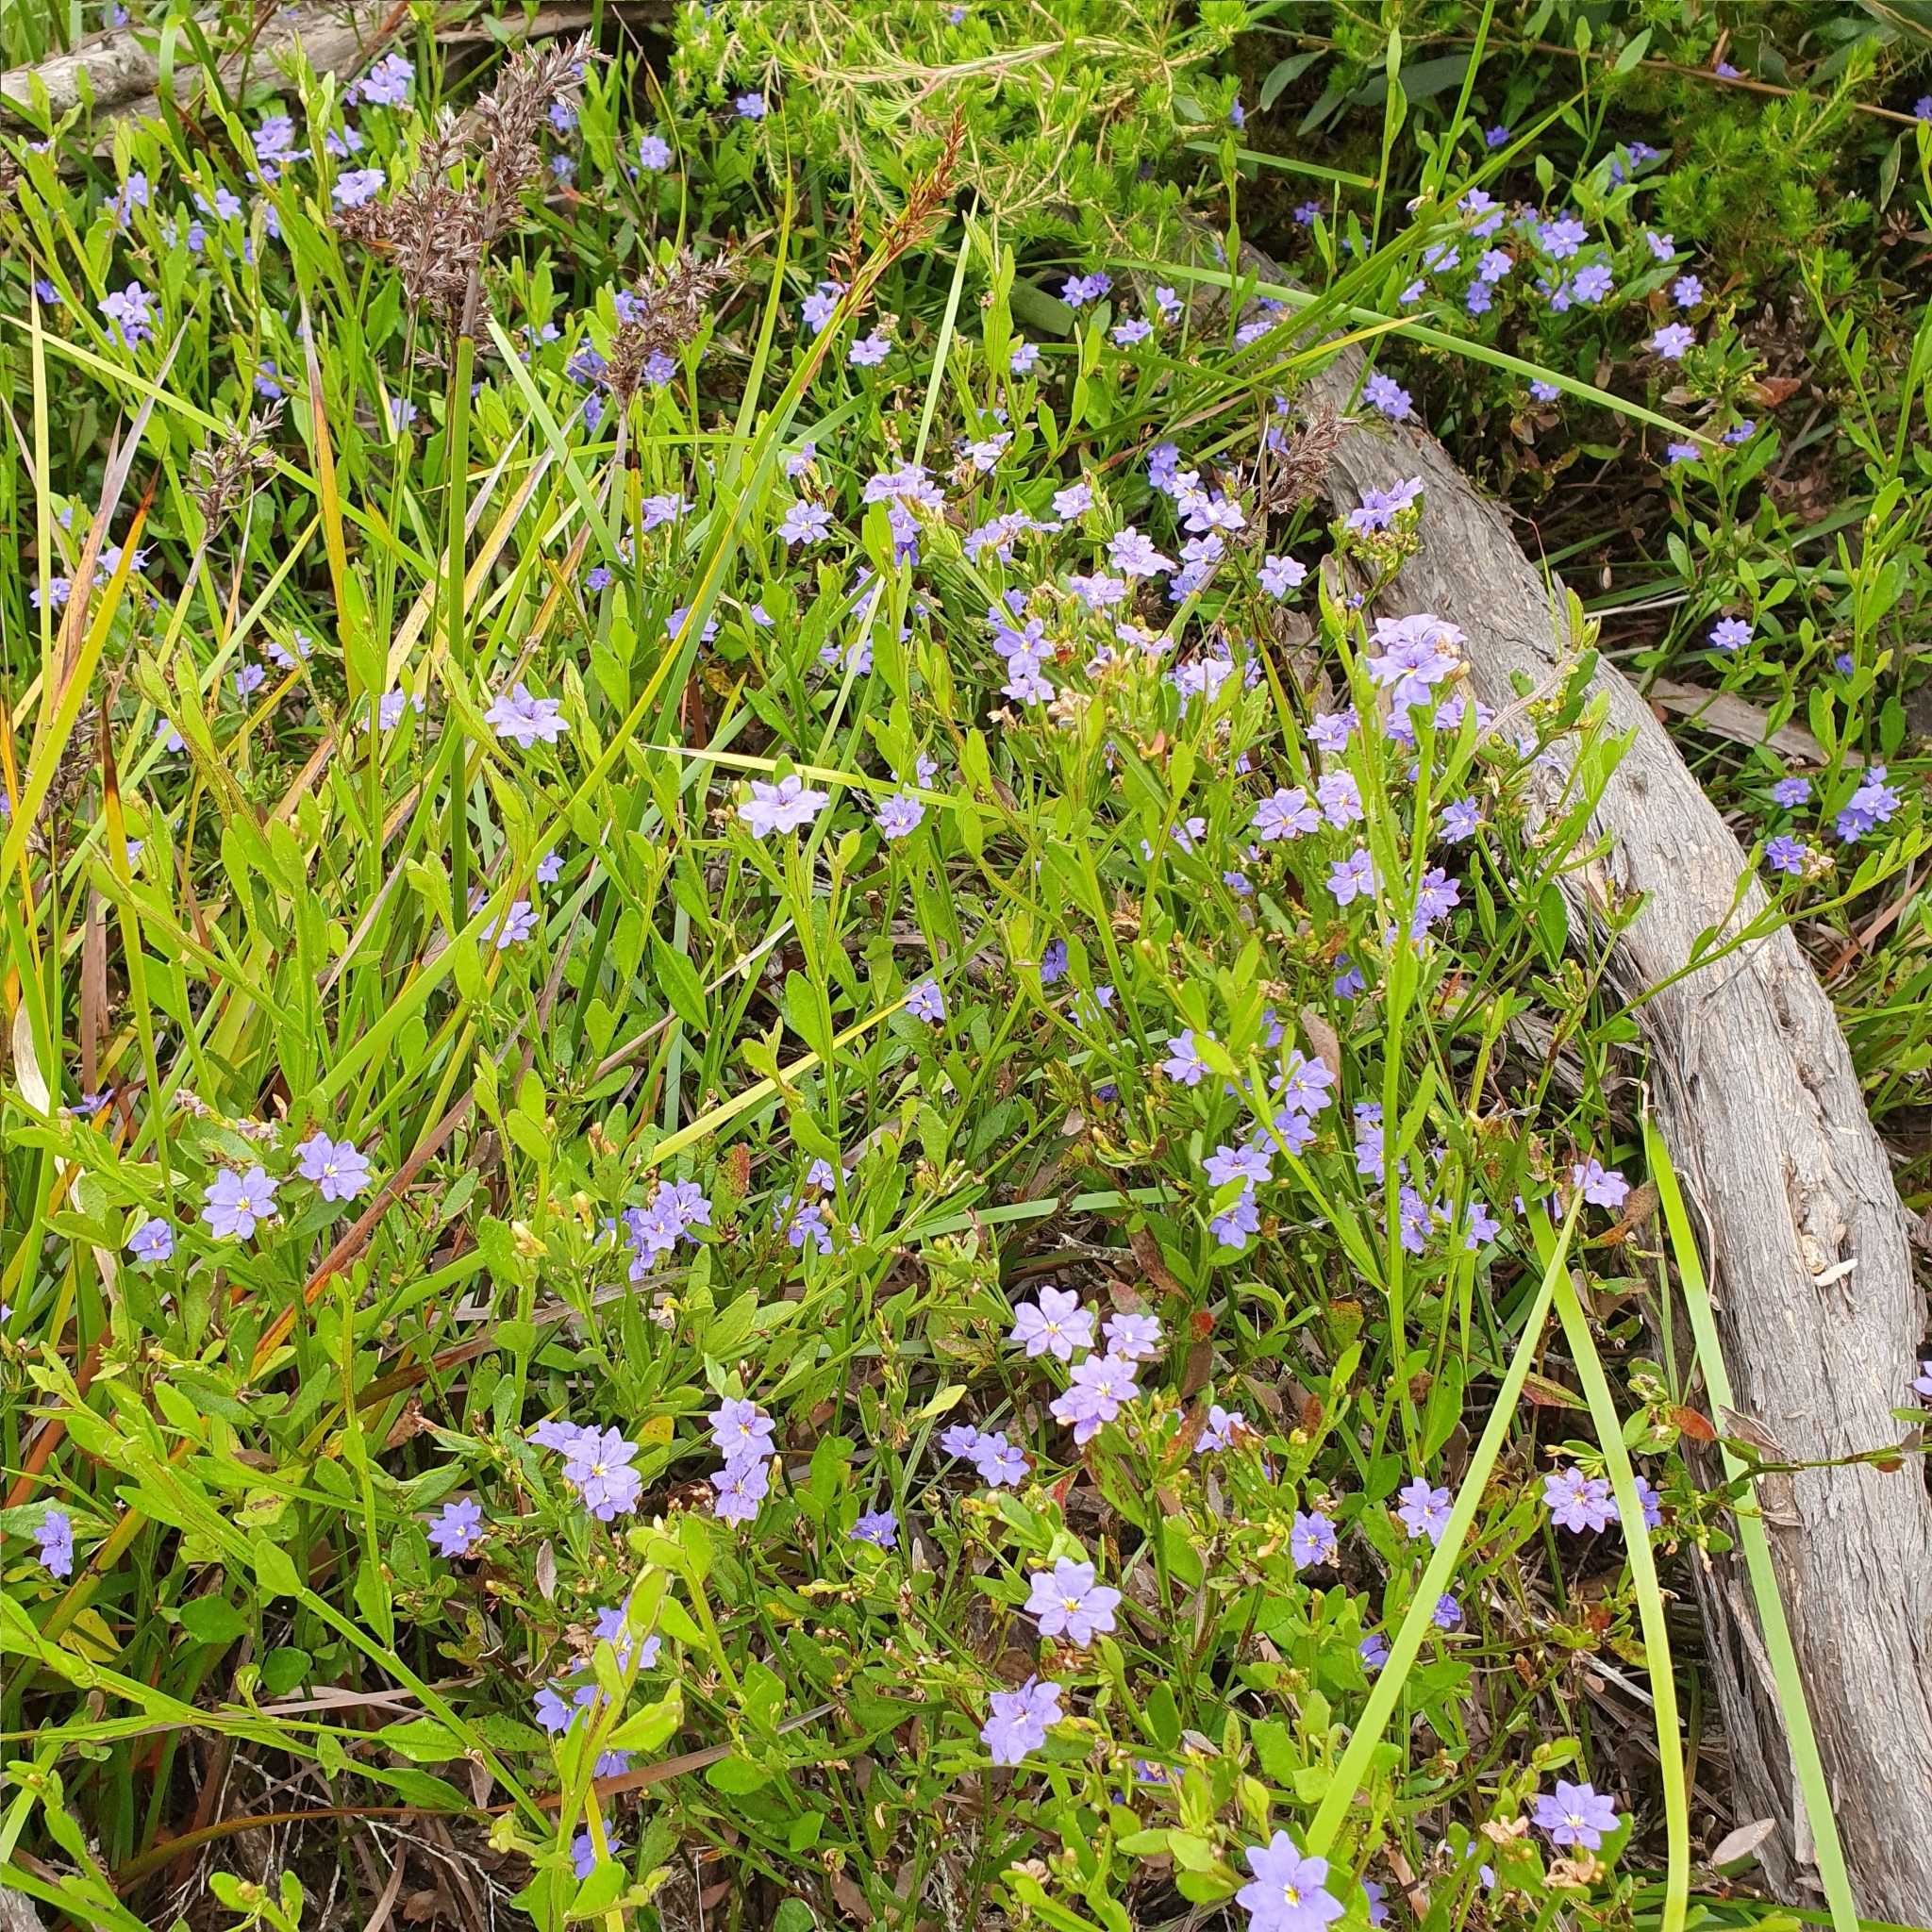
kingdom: Plantae
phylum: Tracheophyta
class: Magnoliopsida
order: Asterales
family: Goodeniaceae
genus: Dampiera
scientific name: Dampiera stricta
